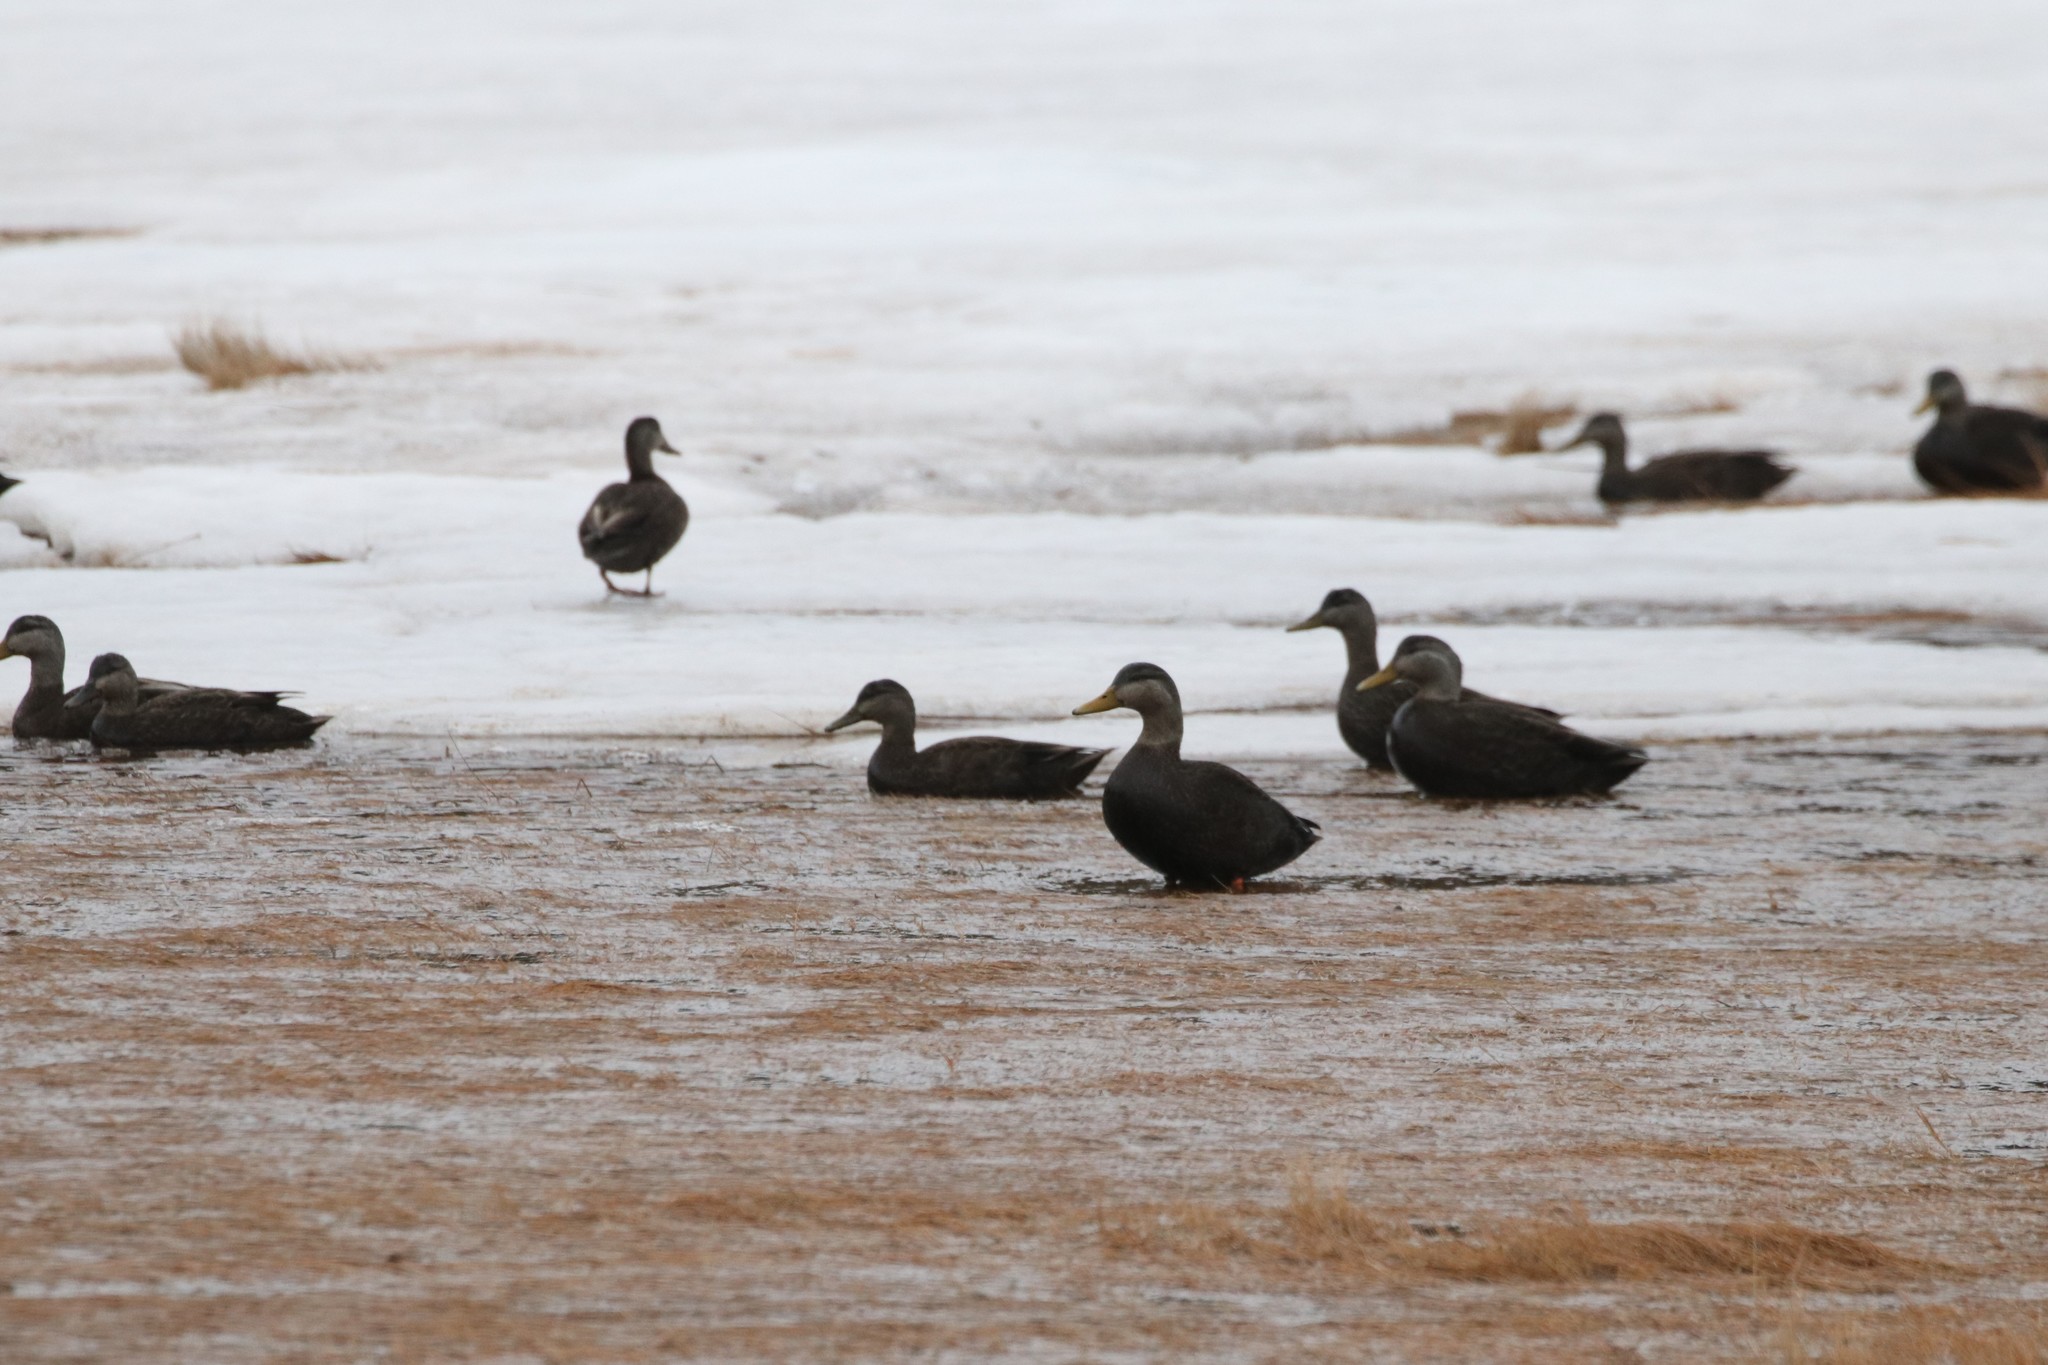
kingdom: Animalia
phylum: Chordata
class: Aves
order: Anseriformes
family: Anatidae
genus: Anas
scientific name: Anas rubripes
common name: American black duck
